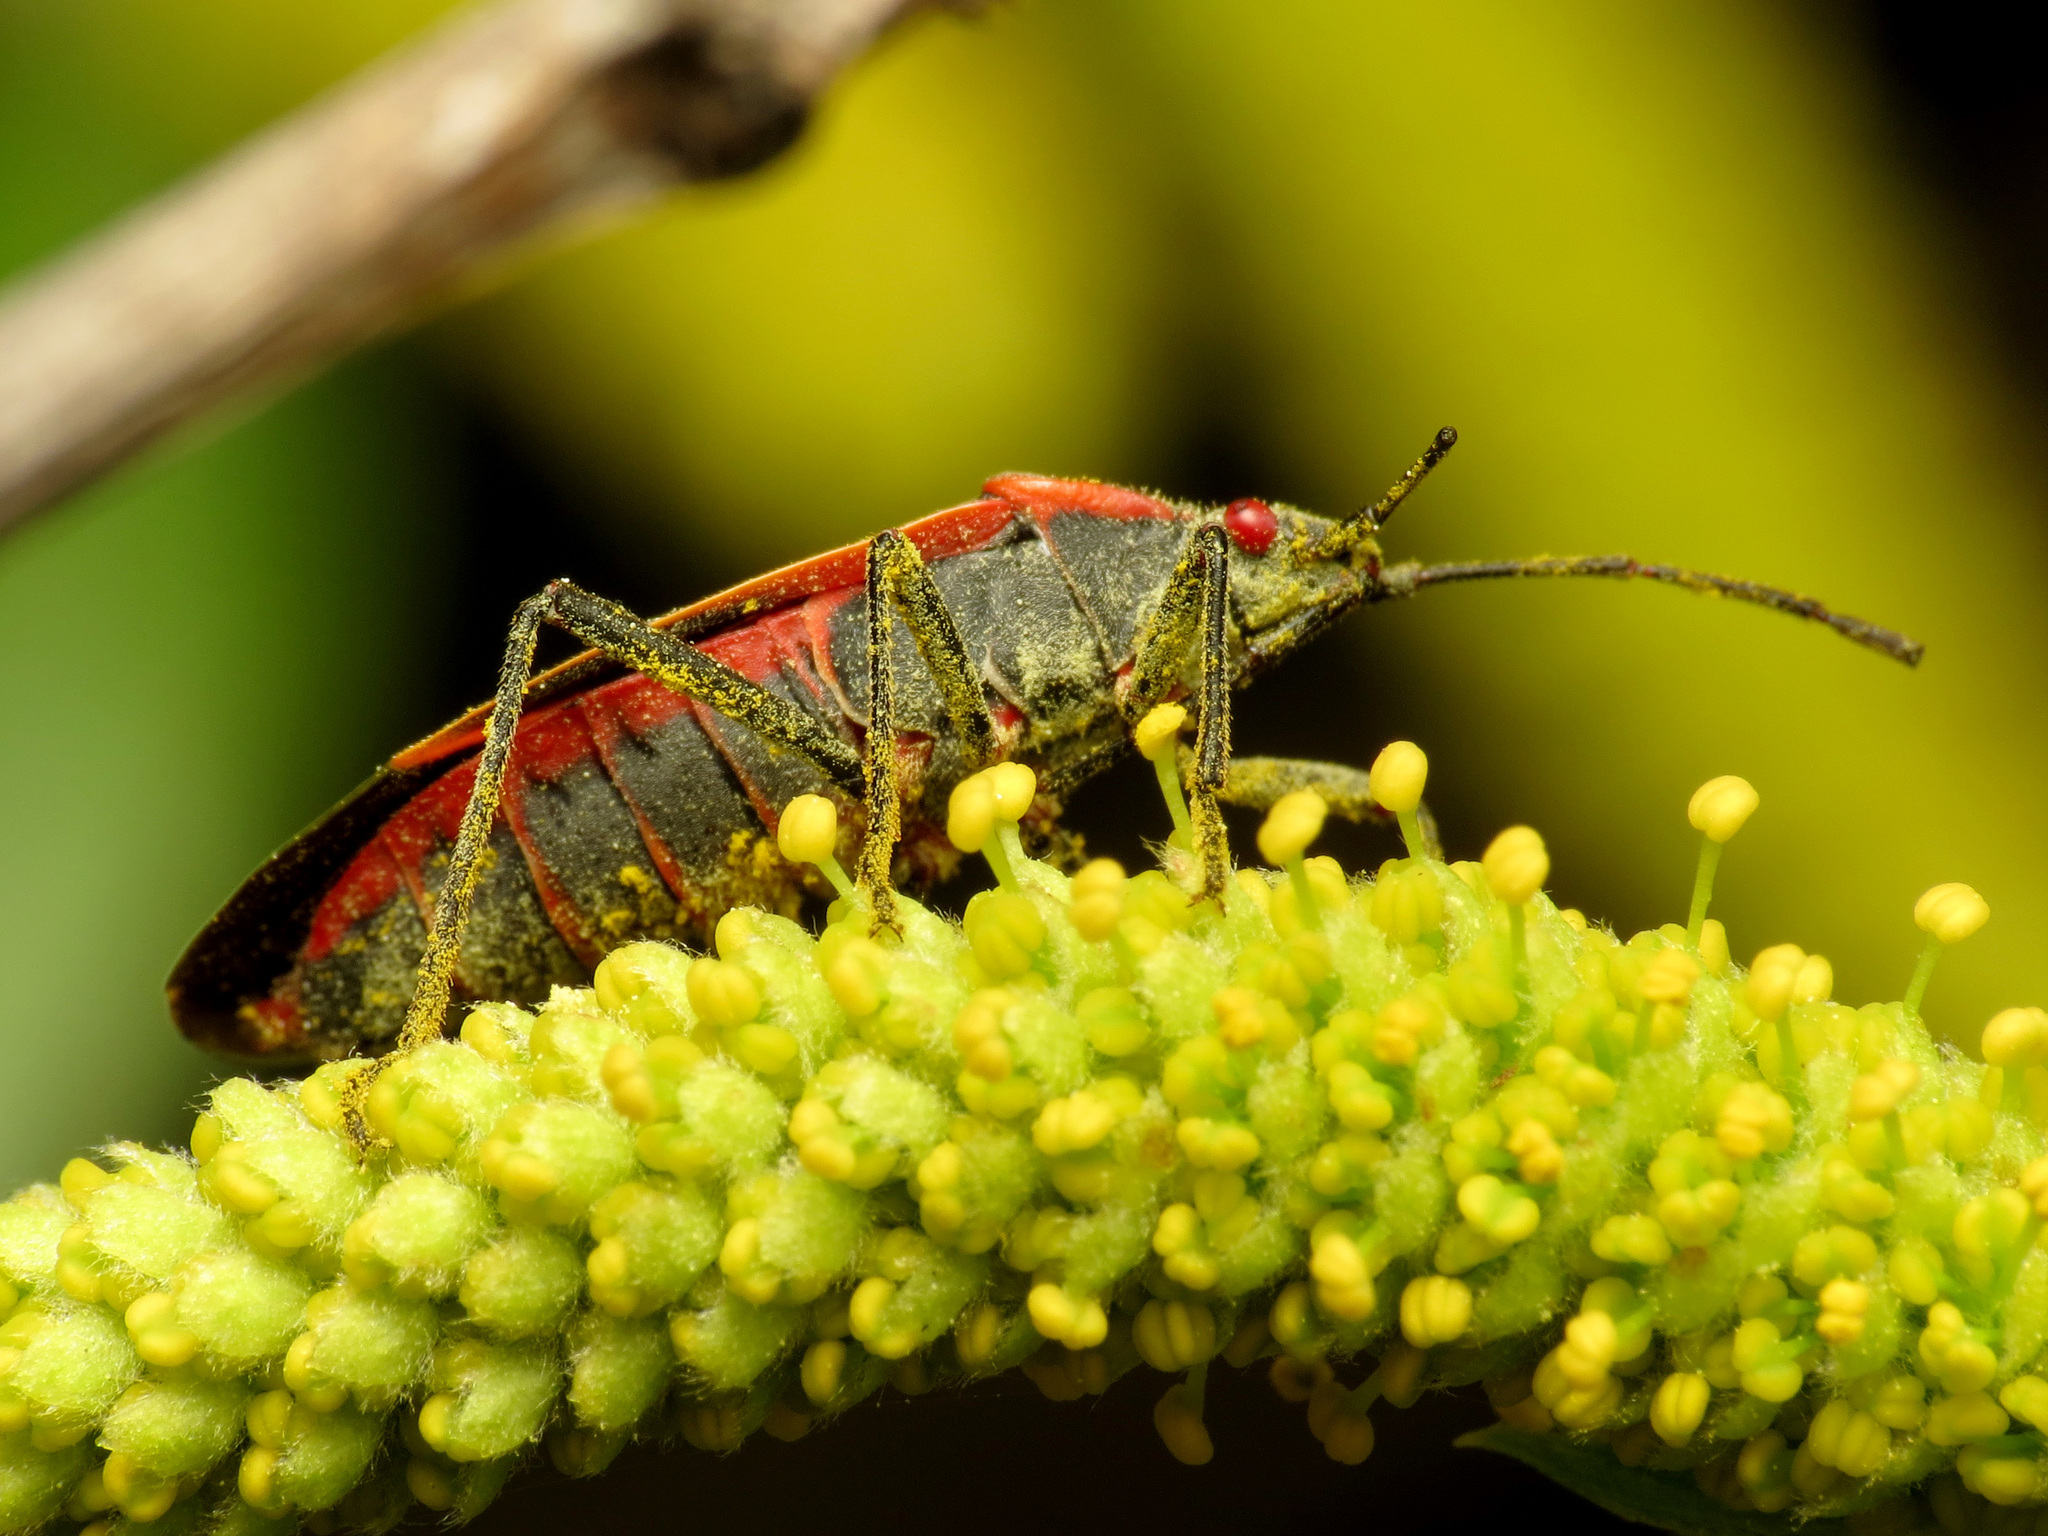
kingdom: Animalia
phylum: Arthropoda
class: Insecta
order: Hemiptera
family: Rhopalidae
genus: Boisea
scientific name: Boisea trivittata
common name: Boxelder bug
